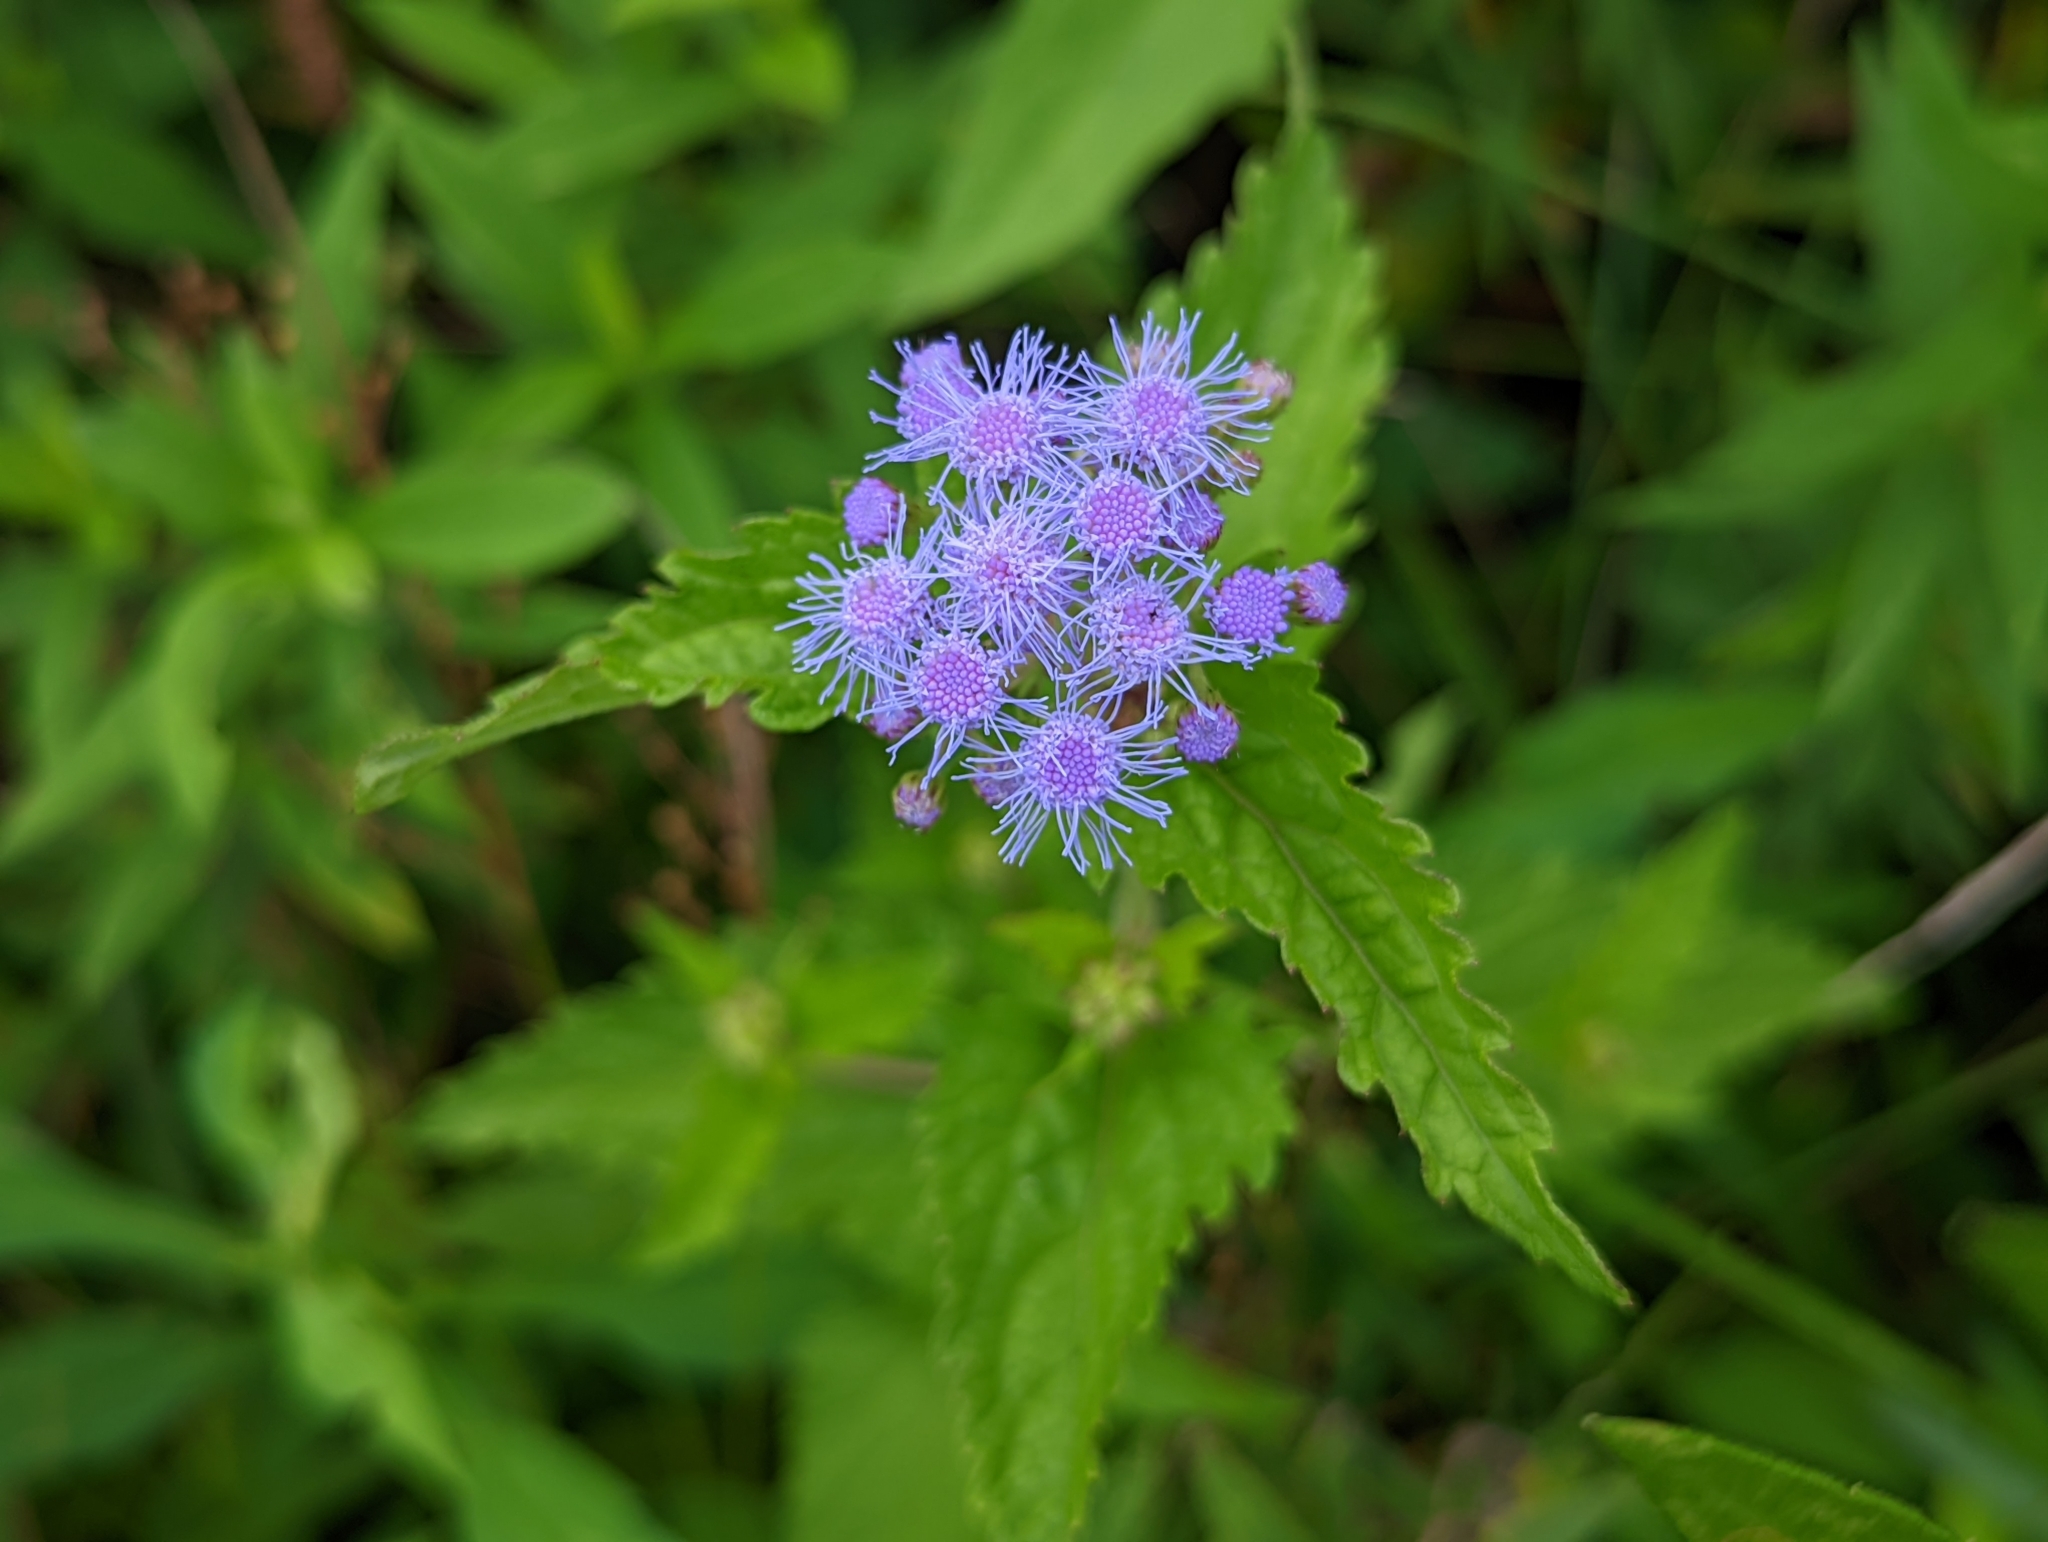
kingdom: Plantae
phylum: Tracheophyta
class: Magnoliopsida
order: Asterales
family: Asteraceae
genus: Conoclinium
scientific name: Conoclinium coelestinum
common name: Blue mistflower
